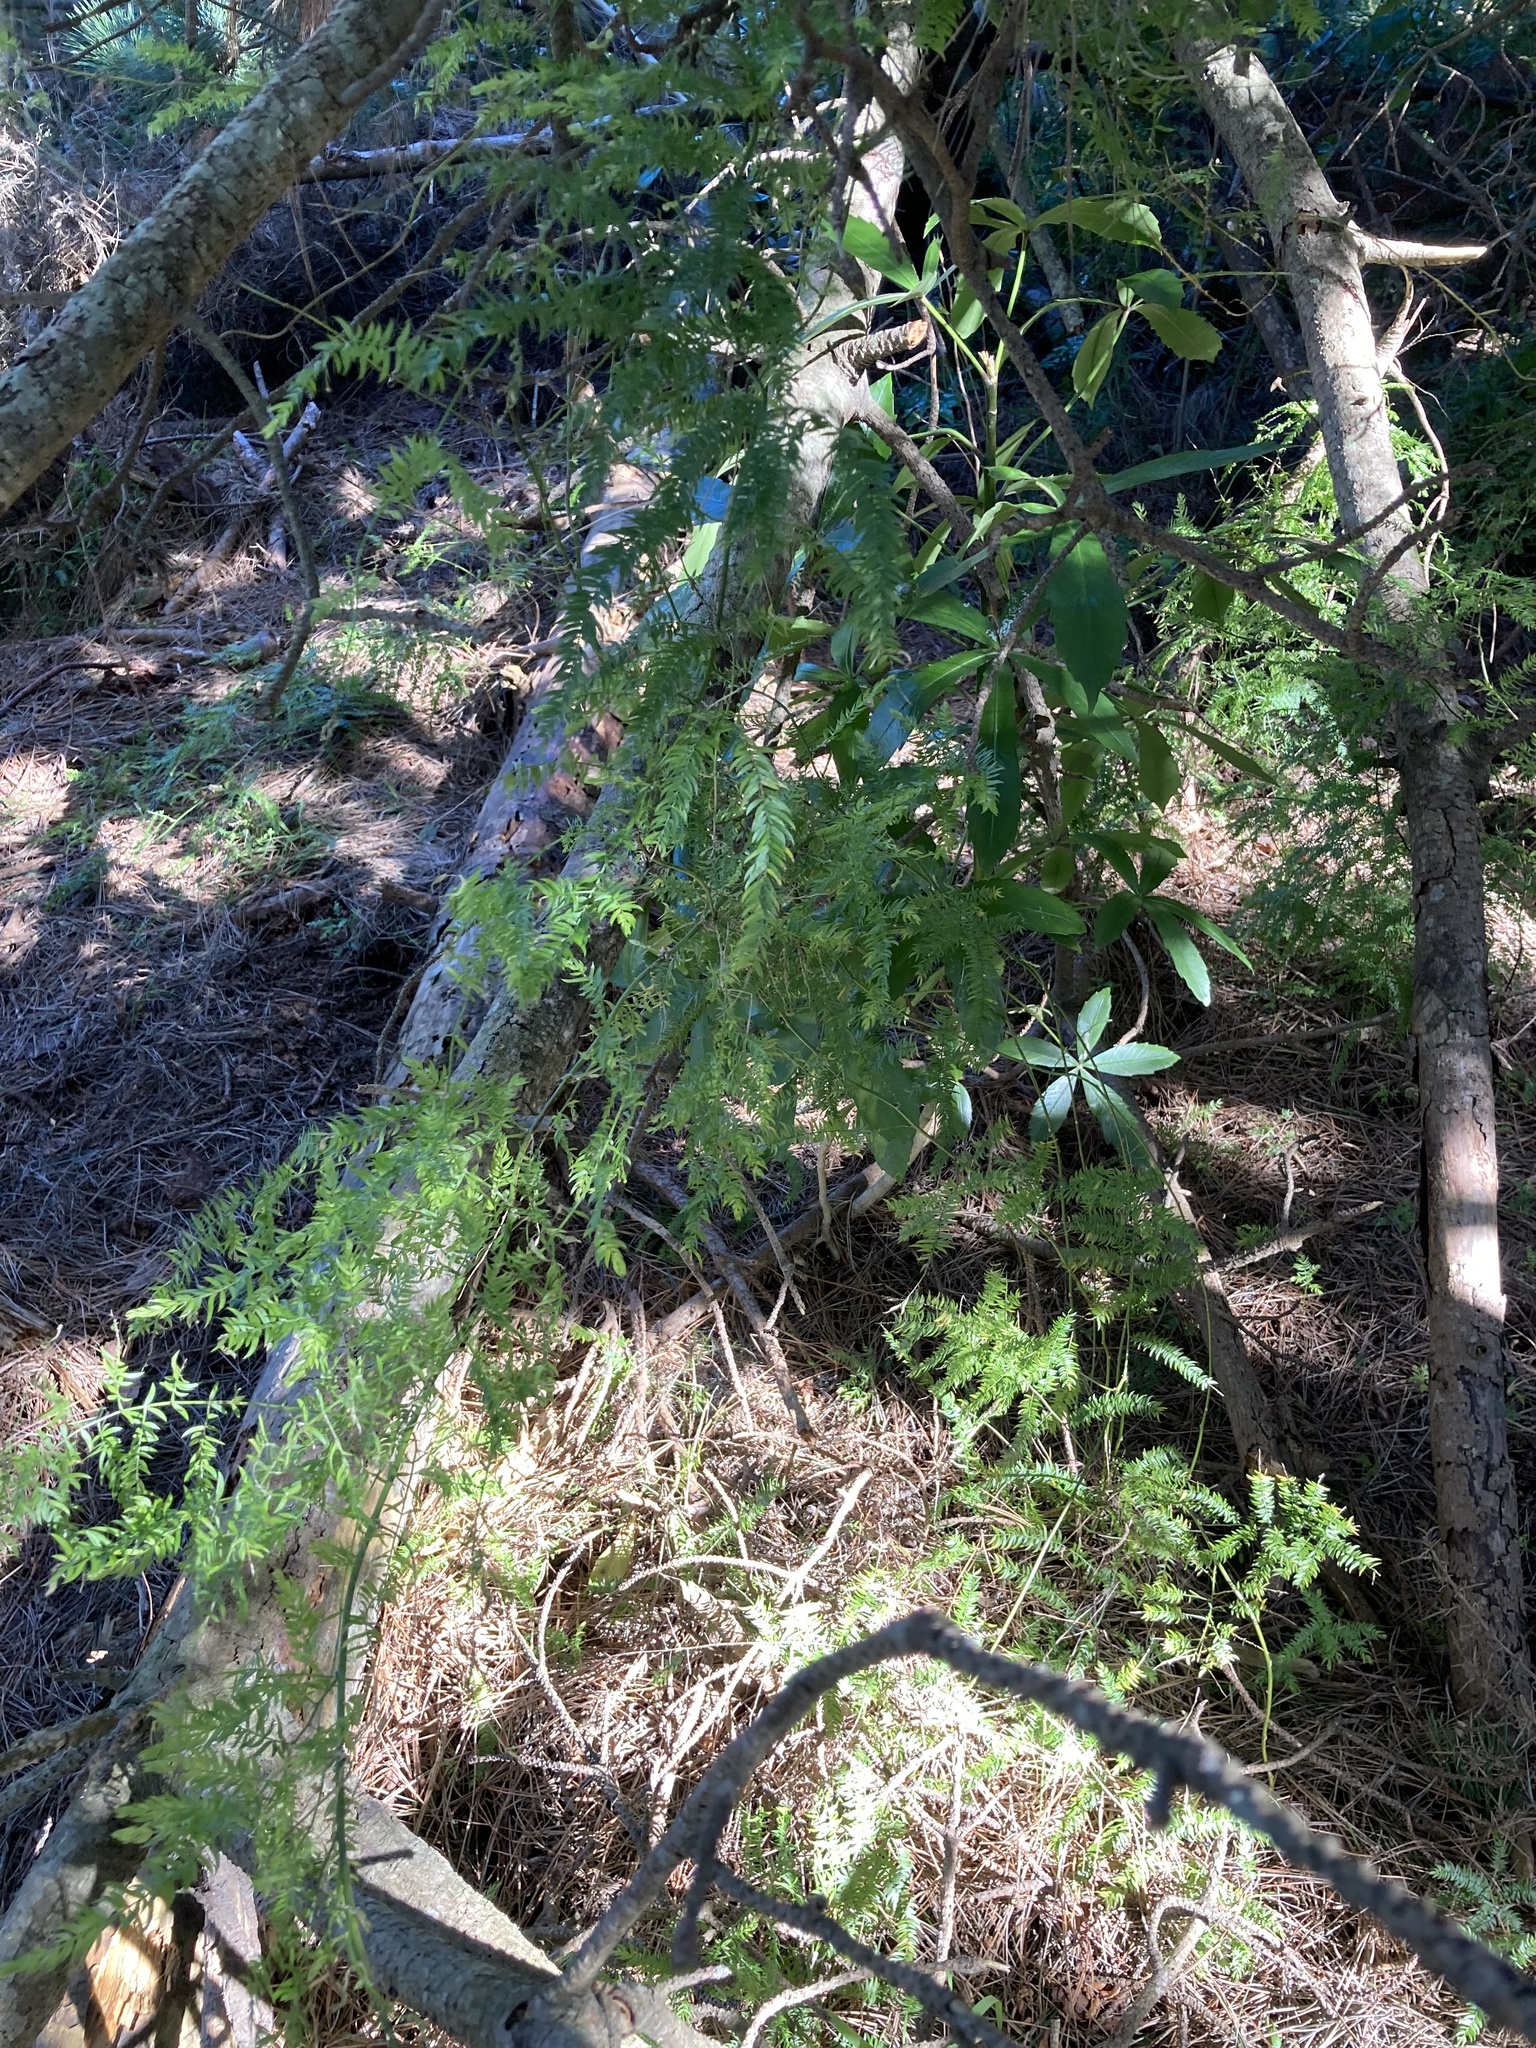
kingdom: Plantae
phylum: Tracheophyta
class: Liliopsida
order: Asparagales
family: Asparagaceae
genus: Asparagus
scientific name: Asparagus scandens
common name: Asparagus-fern
